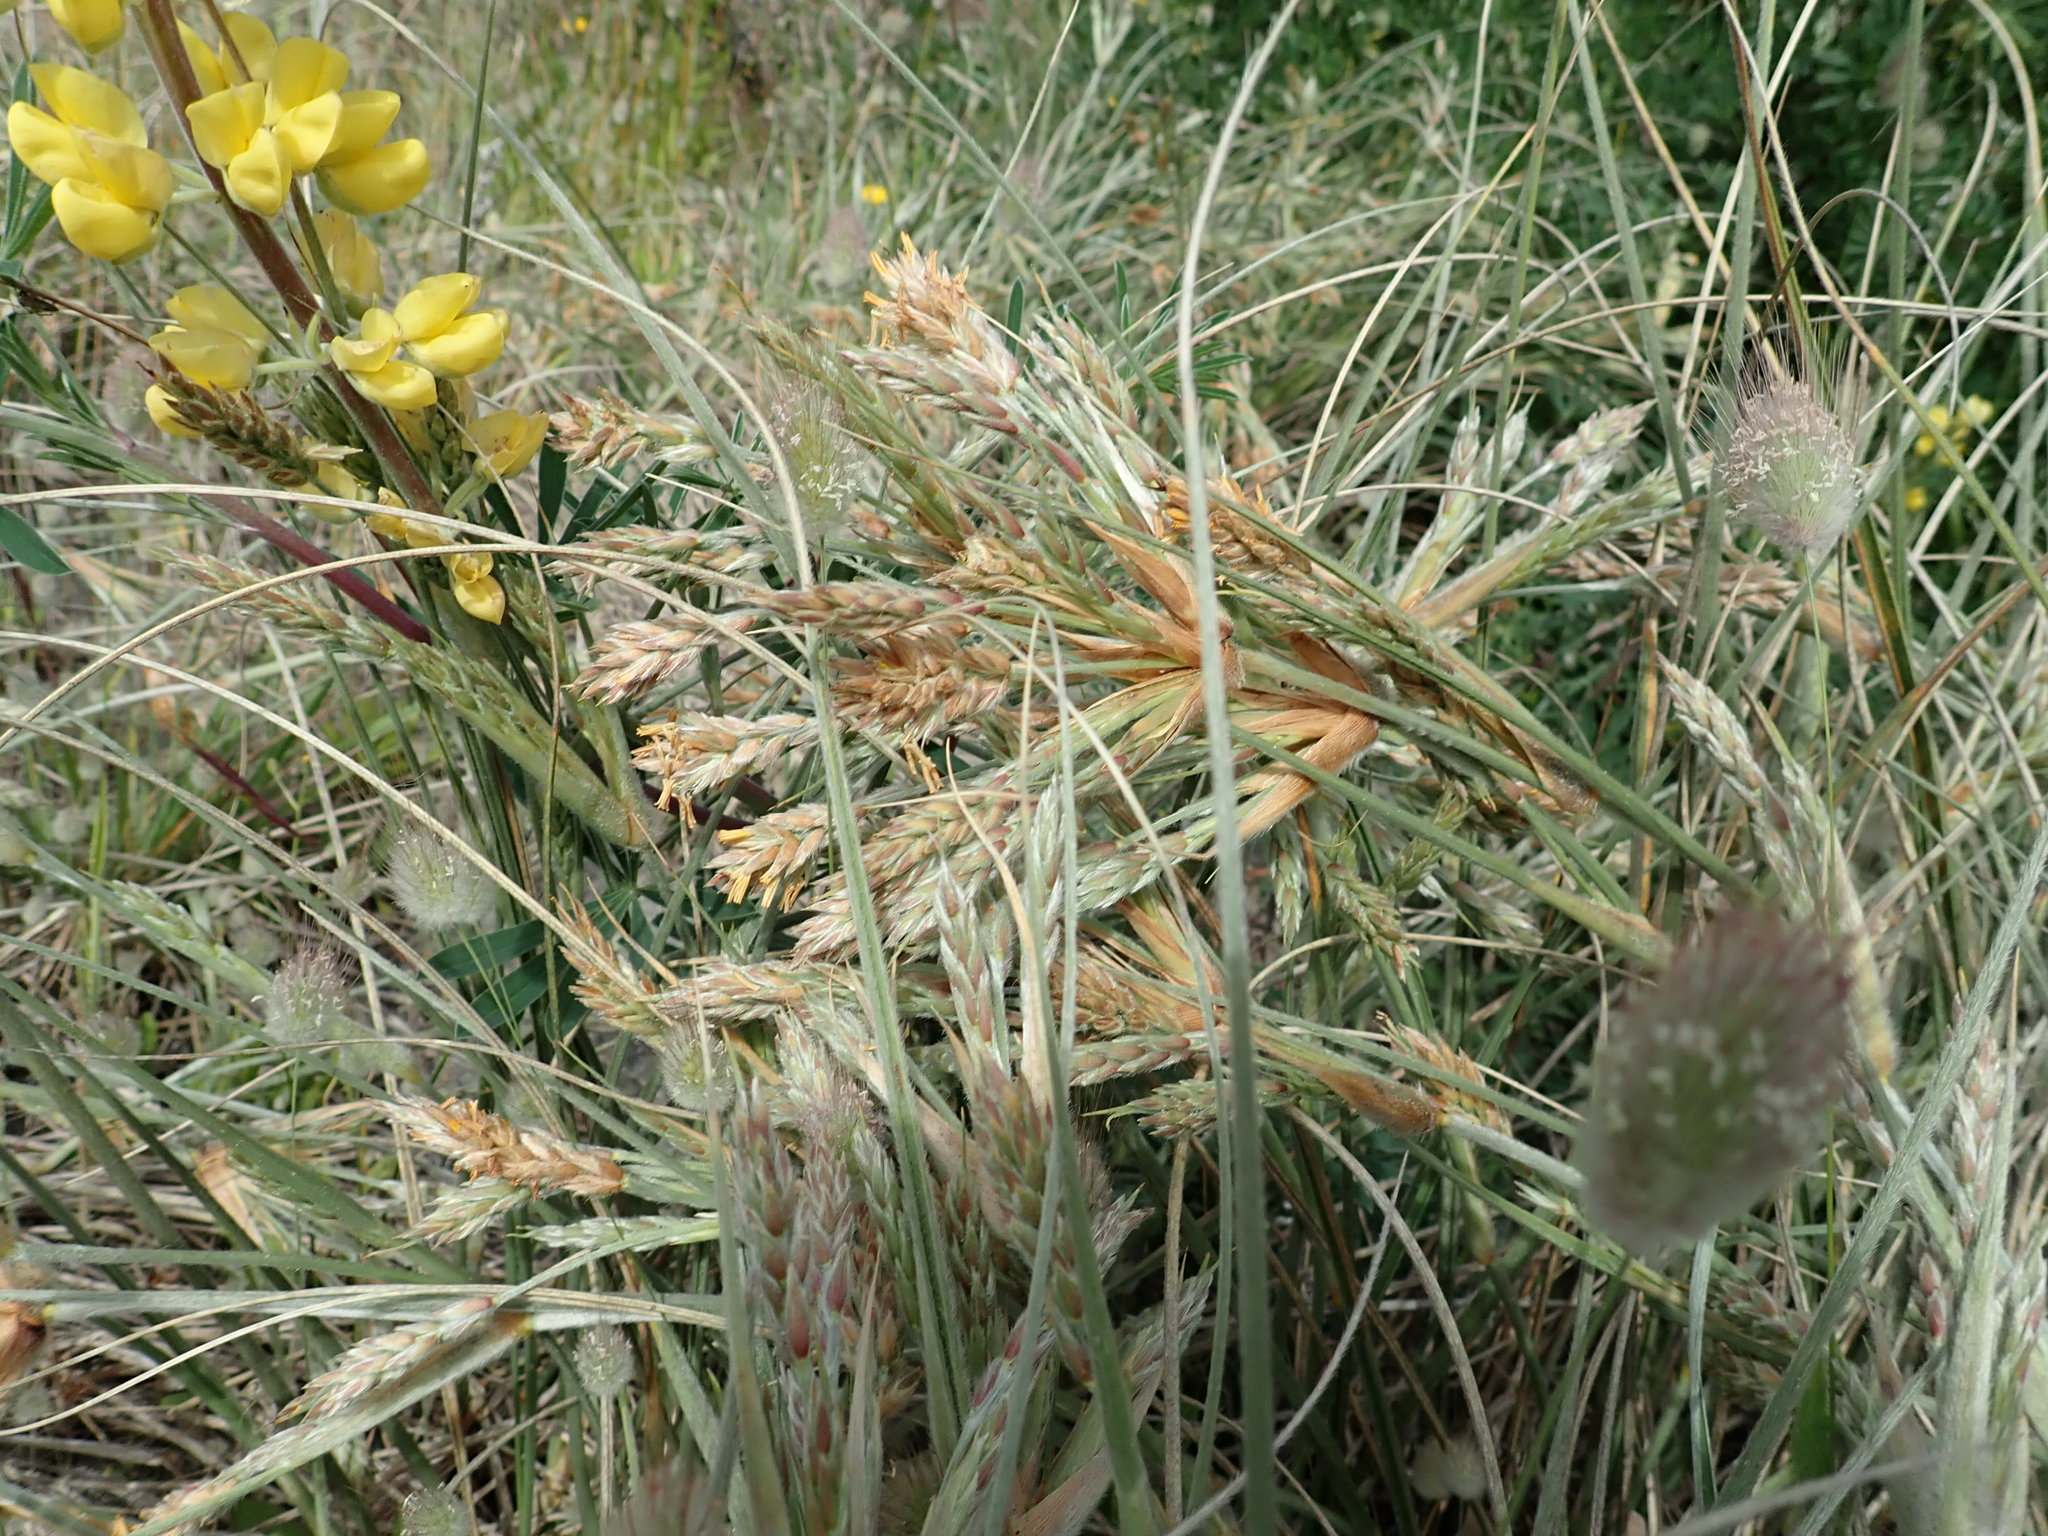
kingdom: Plantae
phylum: Tracheophyta
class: Liliopsida
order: Poales
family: Poaceae
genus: Spinifex
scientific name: Spinifex sericeus
